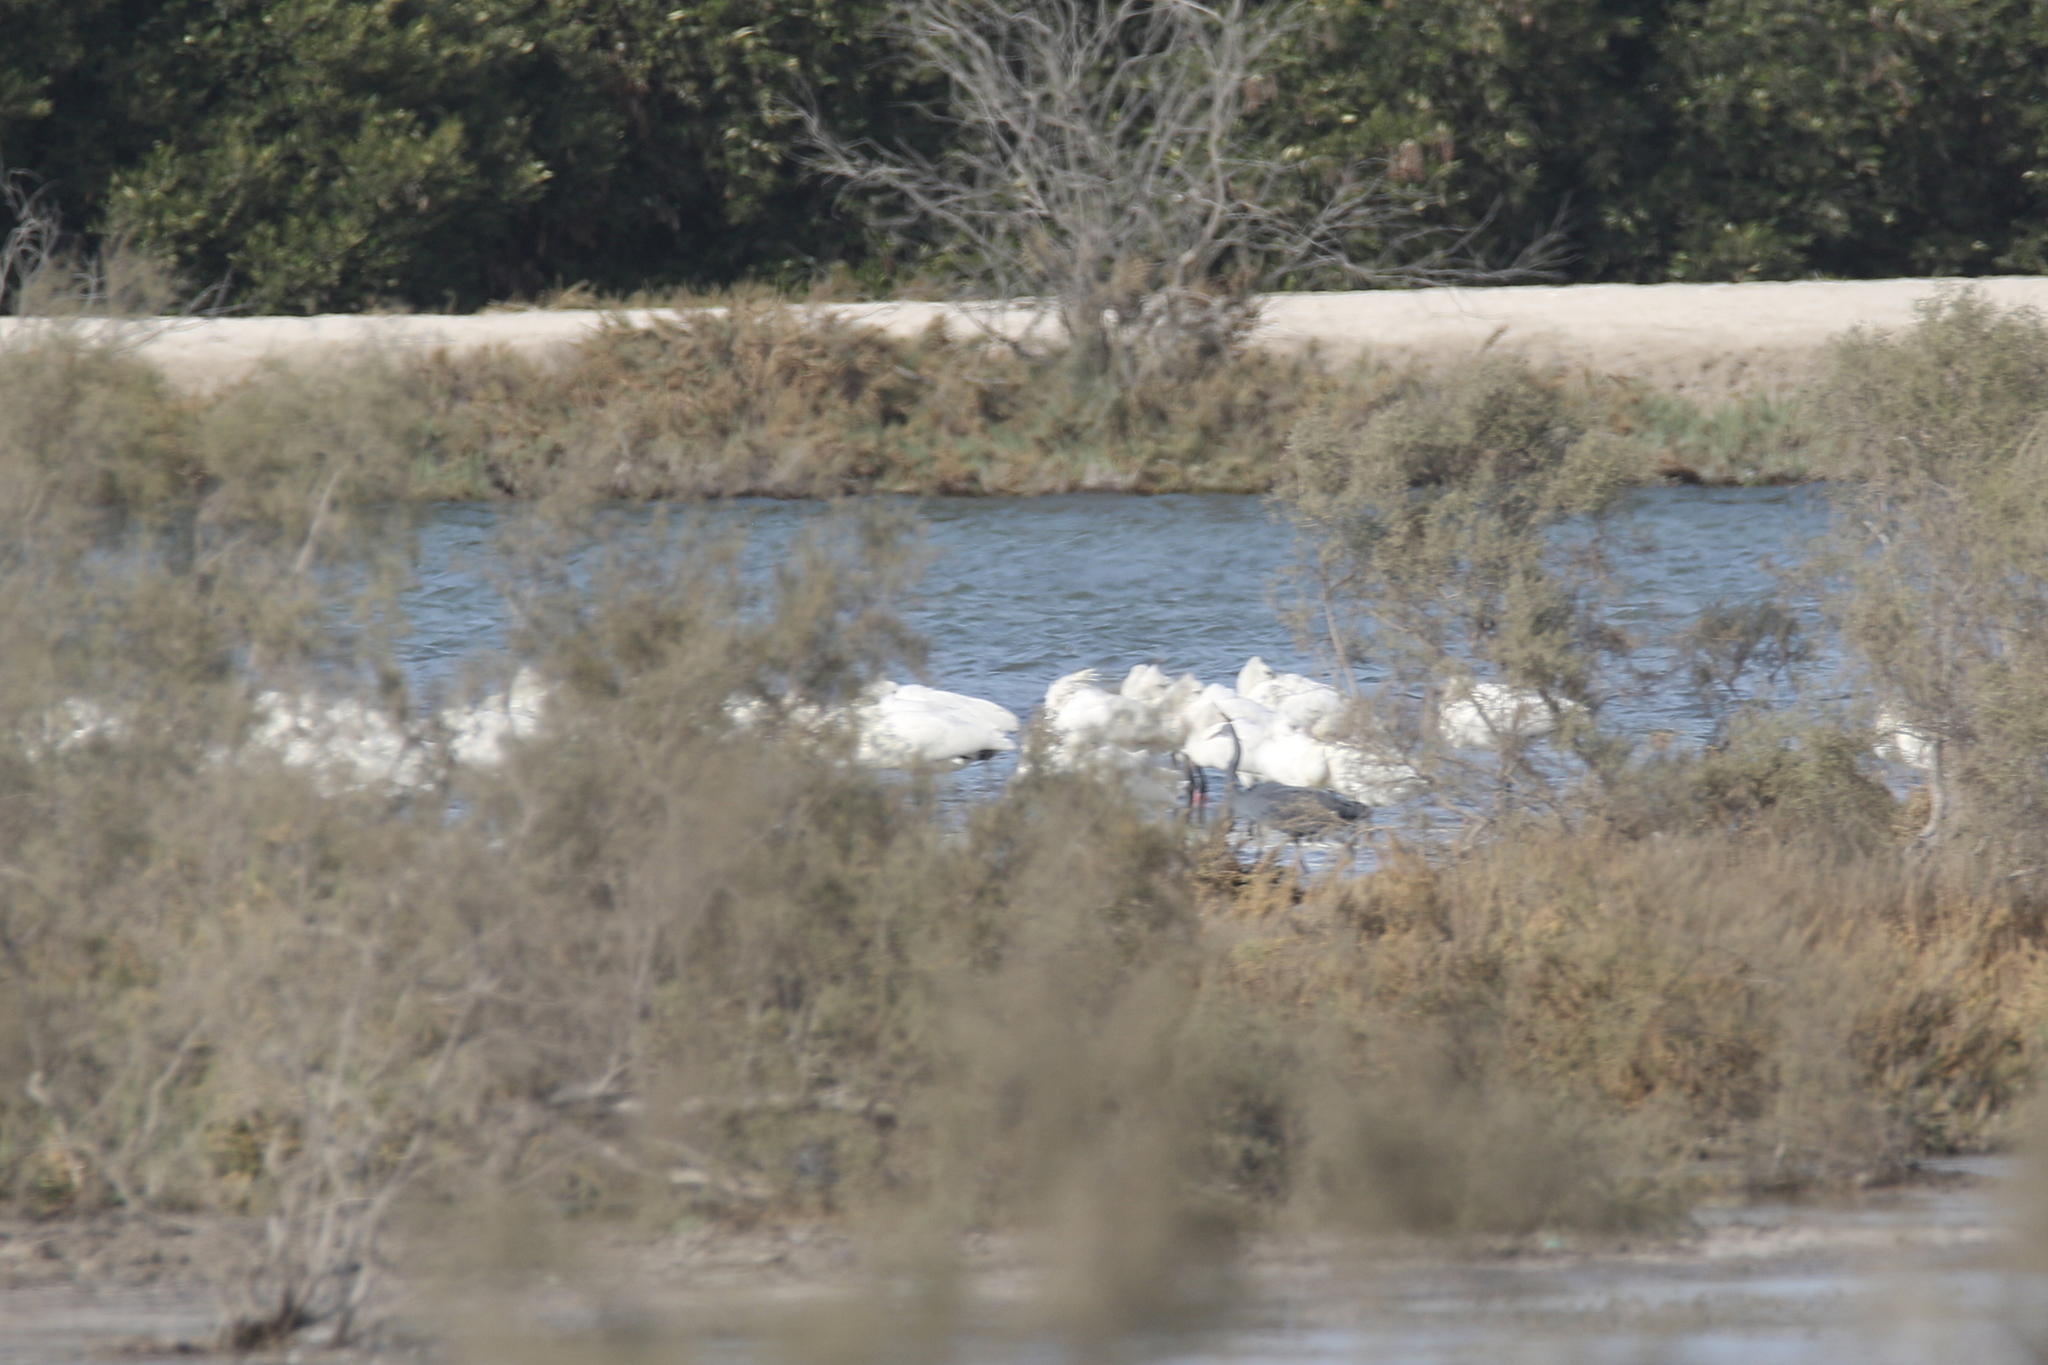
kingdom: Animalia
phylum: Chordata
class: Aves
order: Pelecaniformes
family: Threskiornithidae
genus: Platalea
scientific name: Platalea leucorodia
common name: Eurasian spoonbill
